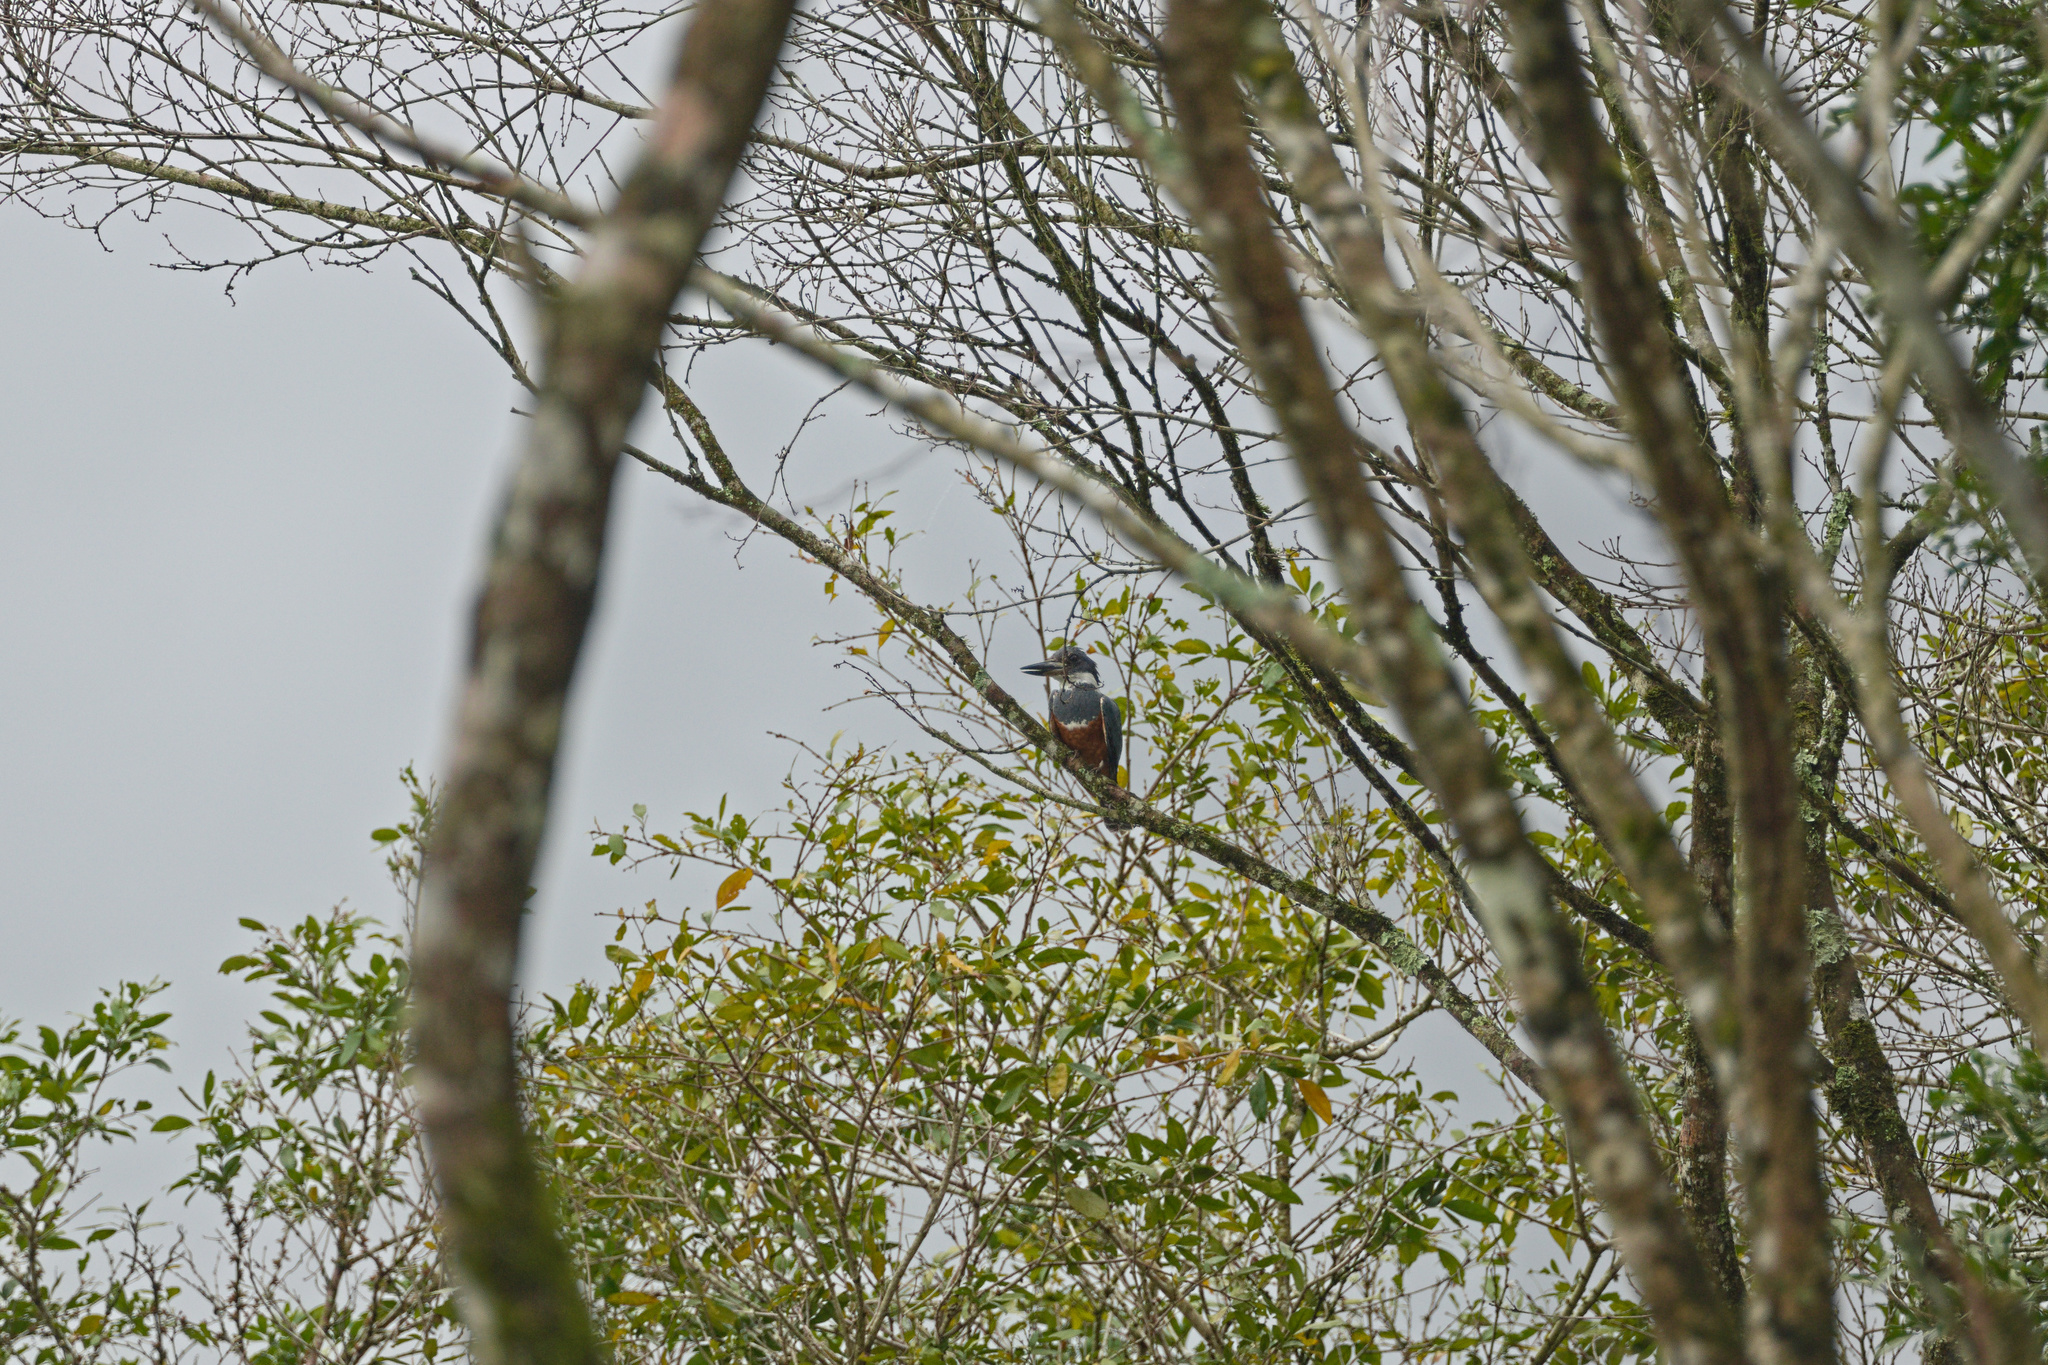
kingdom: Animalia
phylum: Chordata
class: Aves
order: Coraciiformes
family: Alcedinidae
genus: Megaceryle
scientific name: Megaceryle torquata
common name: Ringed kingfisher
